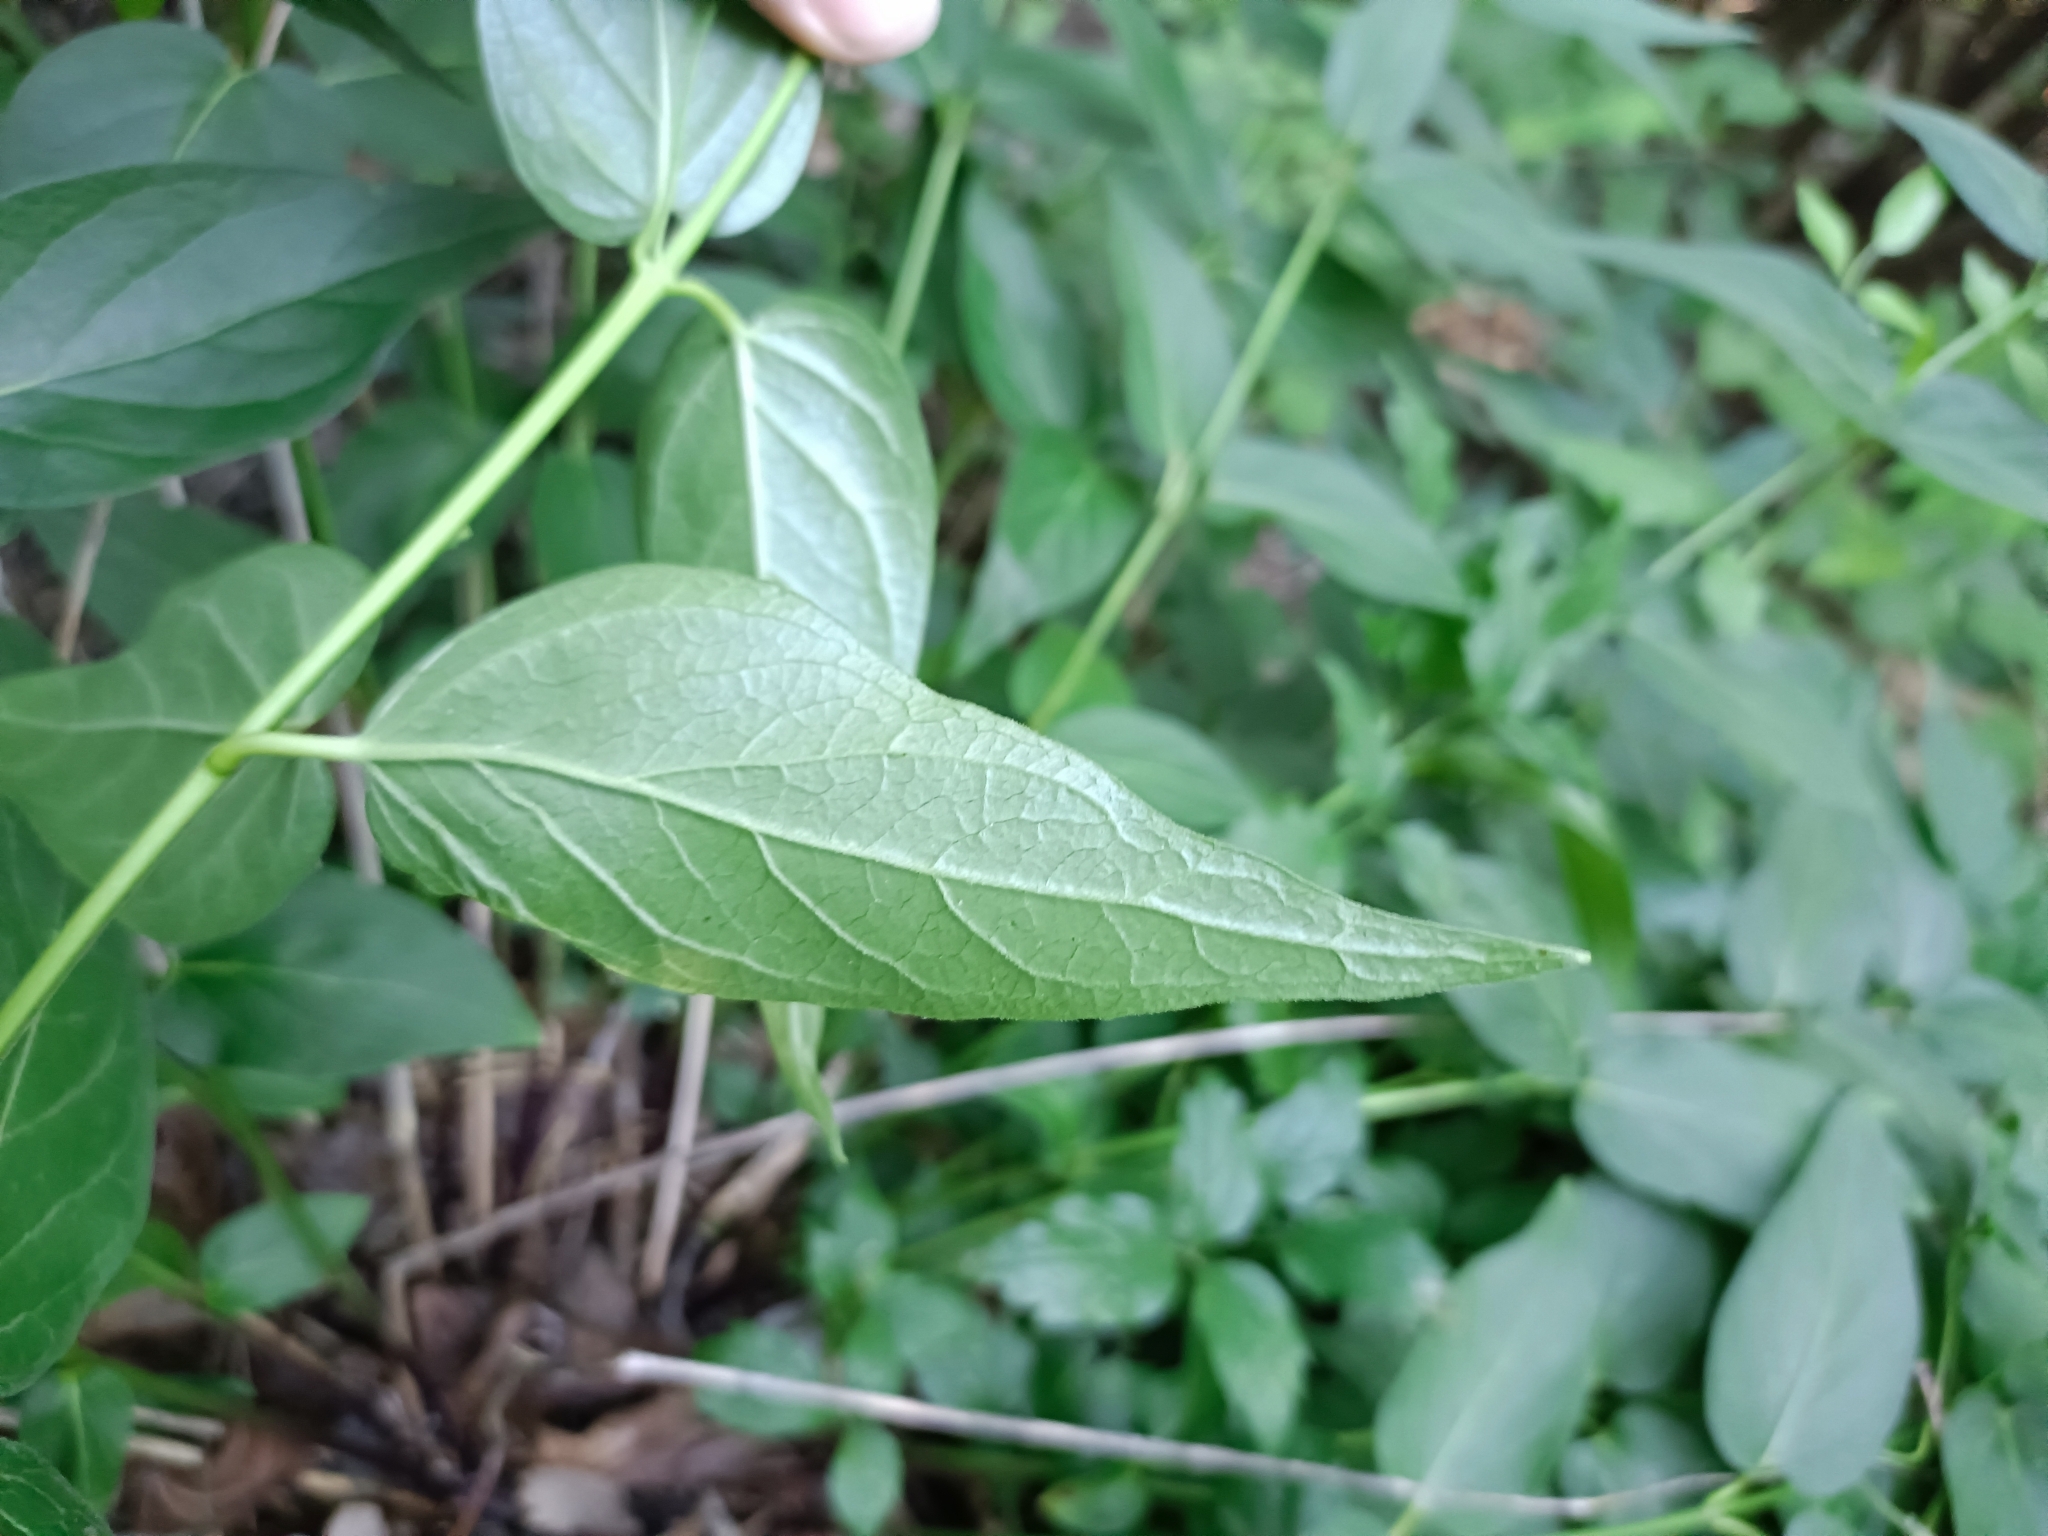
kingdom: Plantae
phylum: Tracheophyta
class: Magnoliopsida
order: Gentianales
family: Apocynaceae
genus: Vincetoxicum
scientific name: Vincetoxicum hirundinaria
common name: White swallowwort
